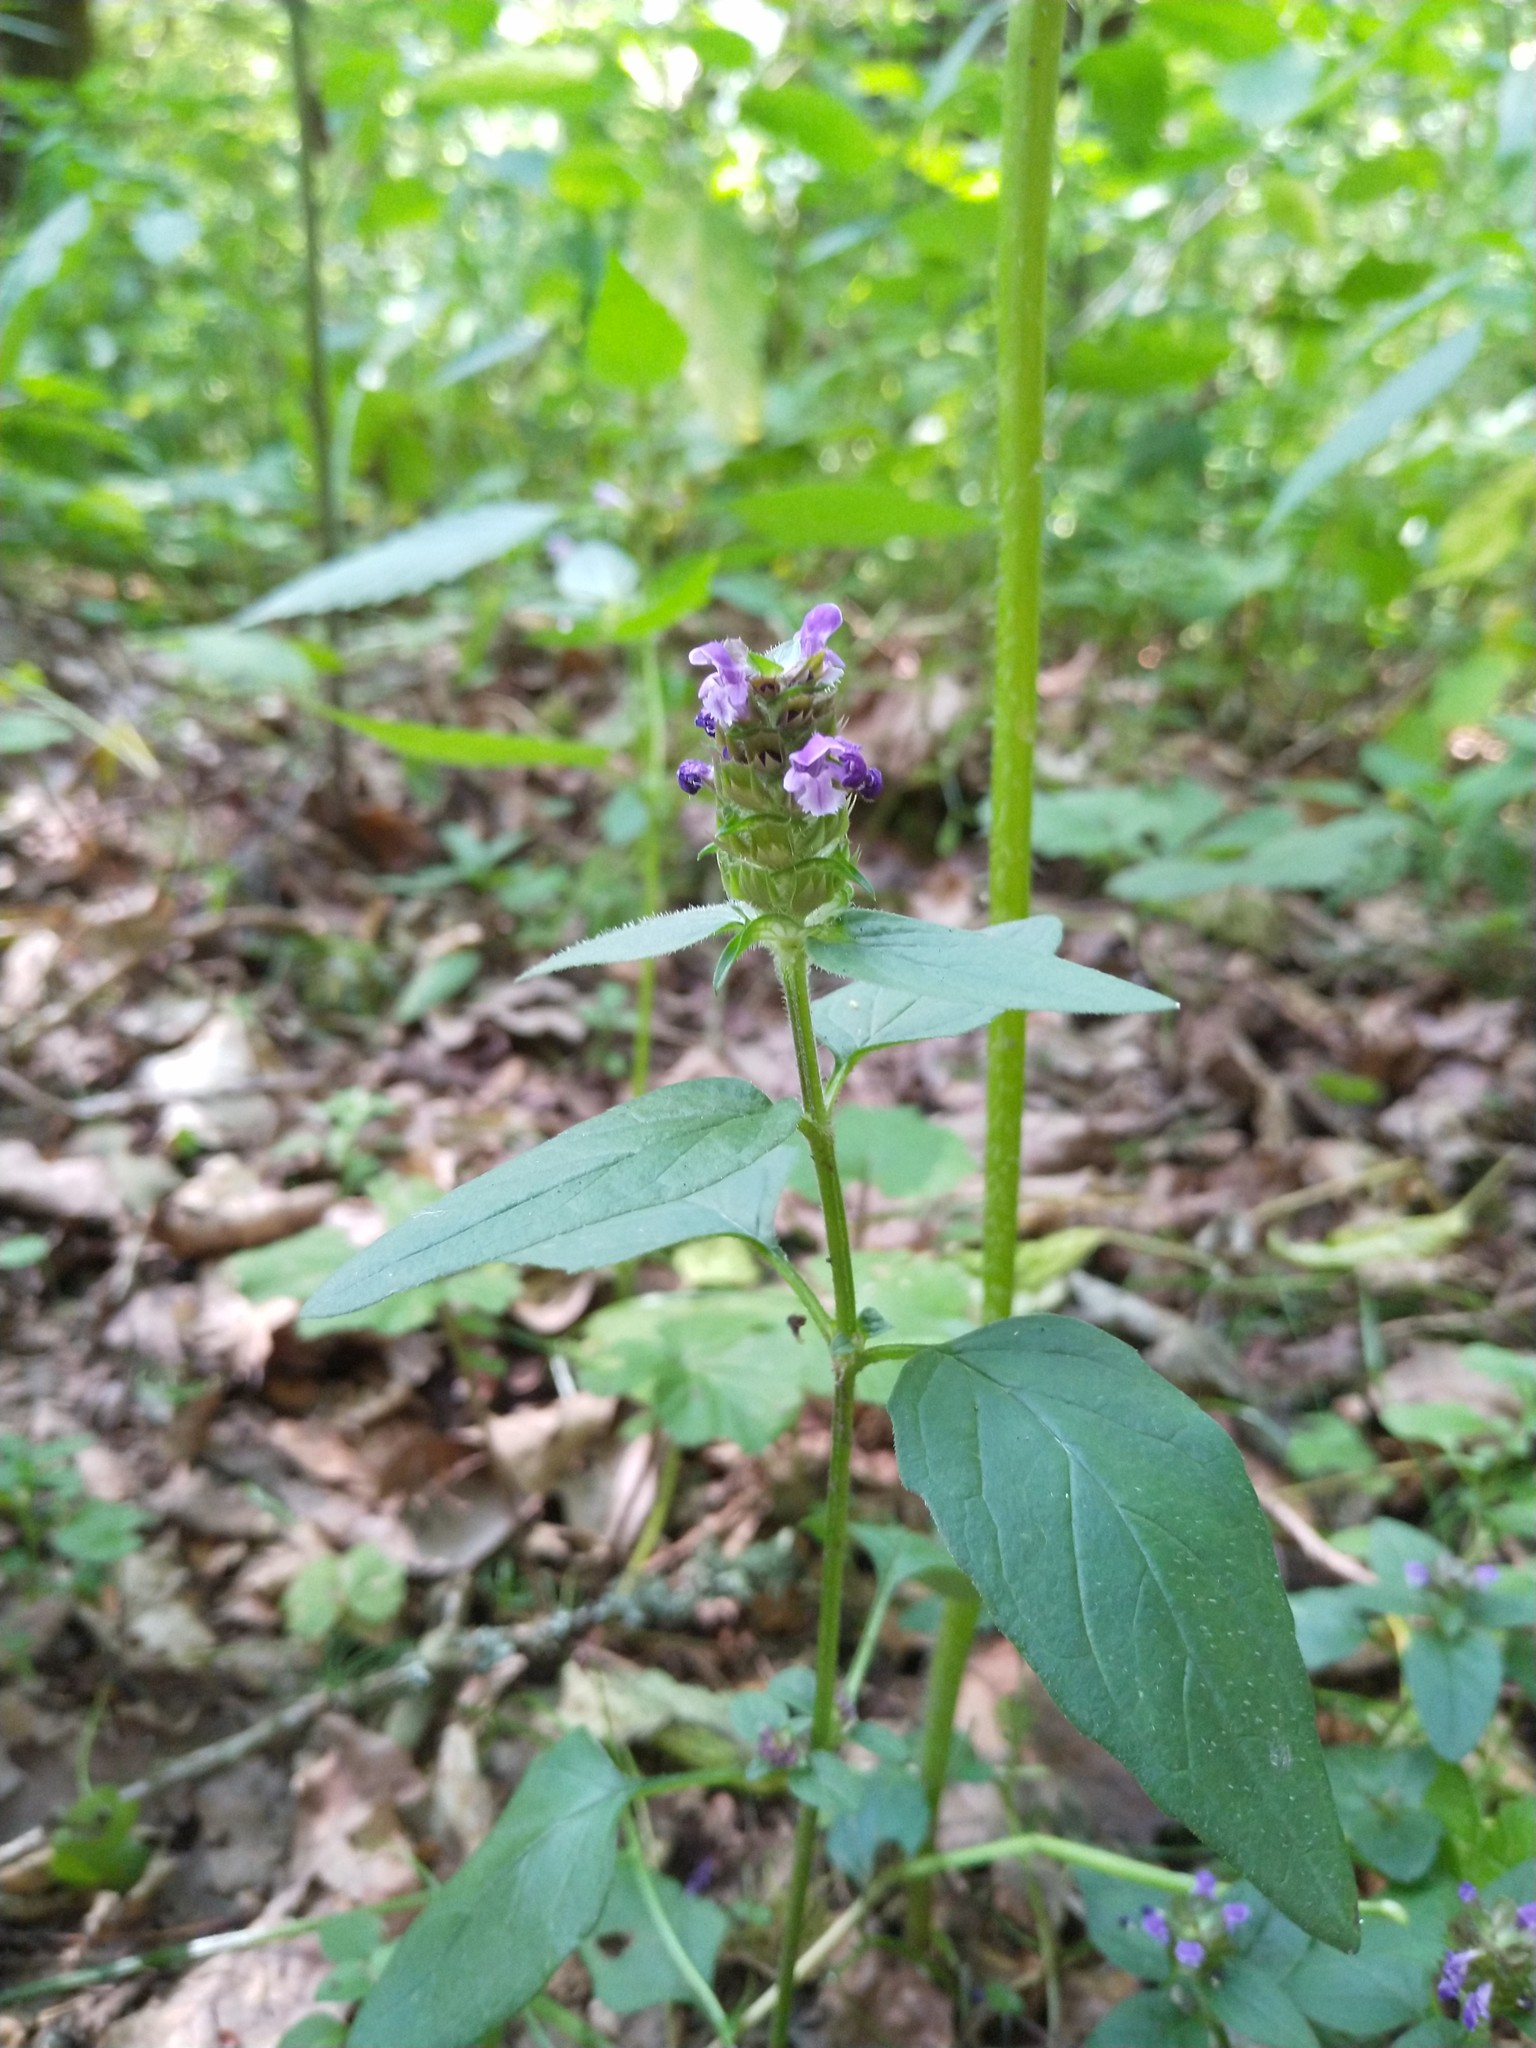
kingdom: Plantae
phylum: Tracheophyta
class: Magnoliopsida
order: Lamiales
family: Lamiaceae
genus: Prunella
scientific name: Prunella vulgaris
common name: Heal-all
